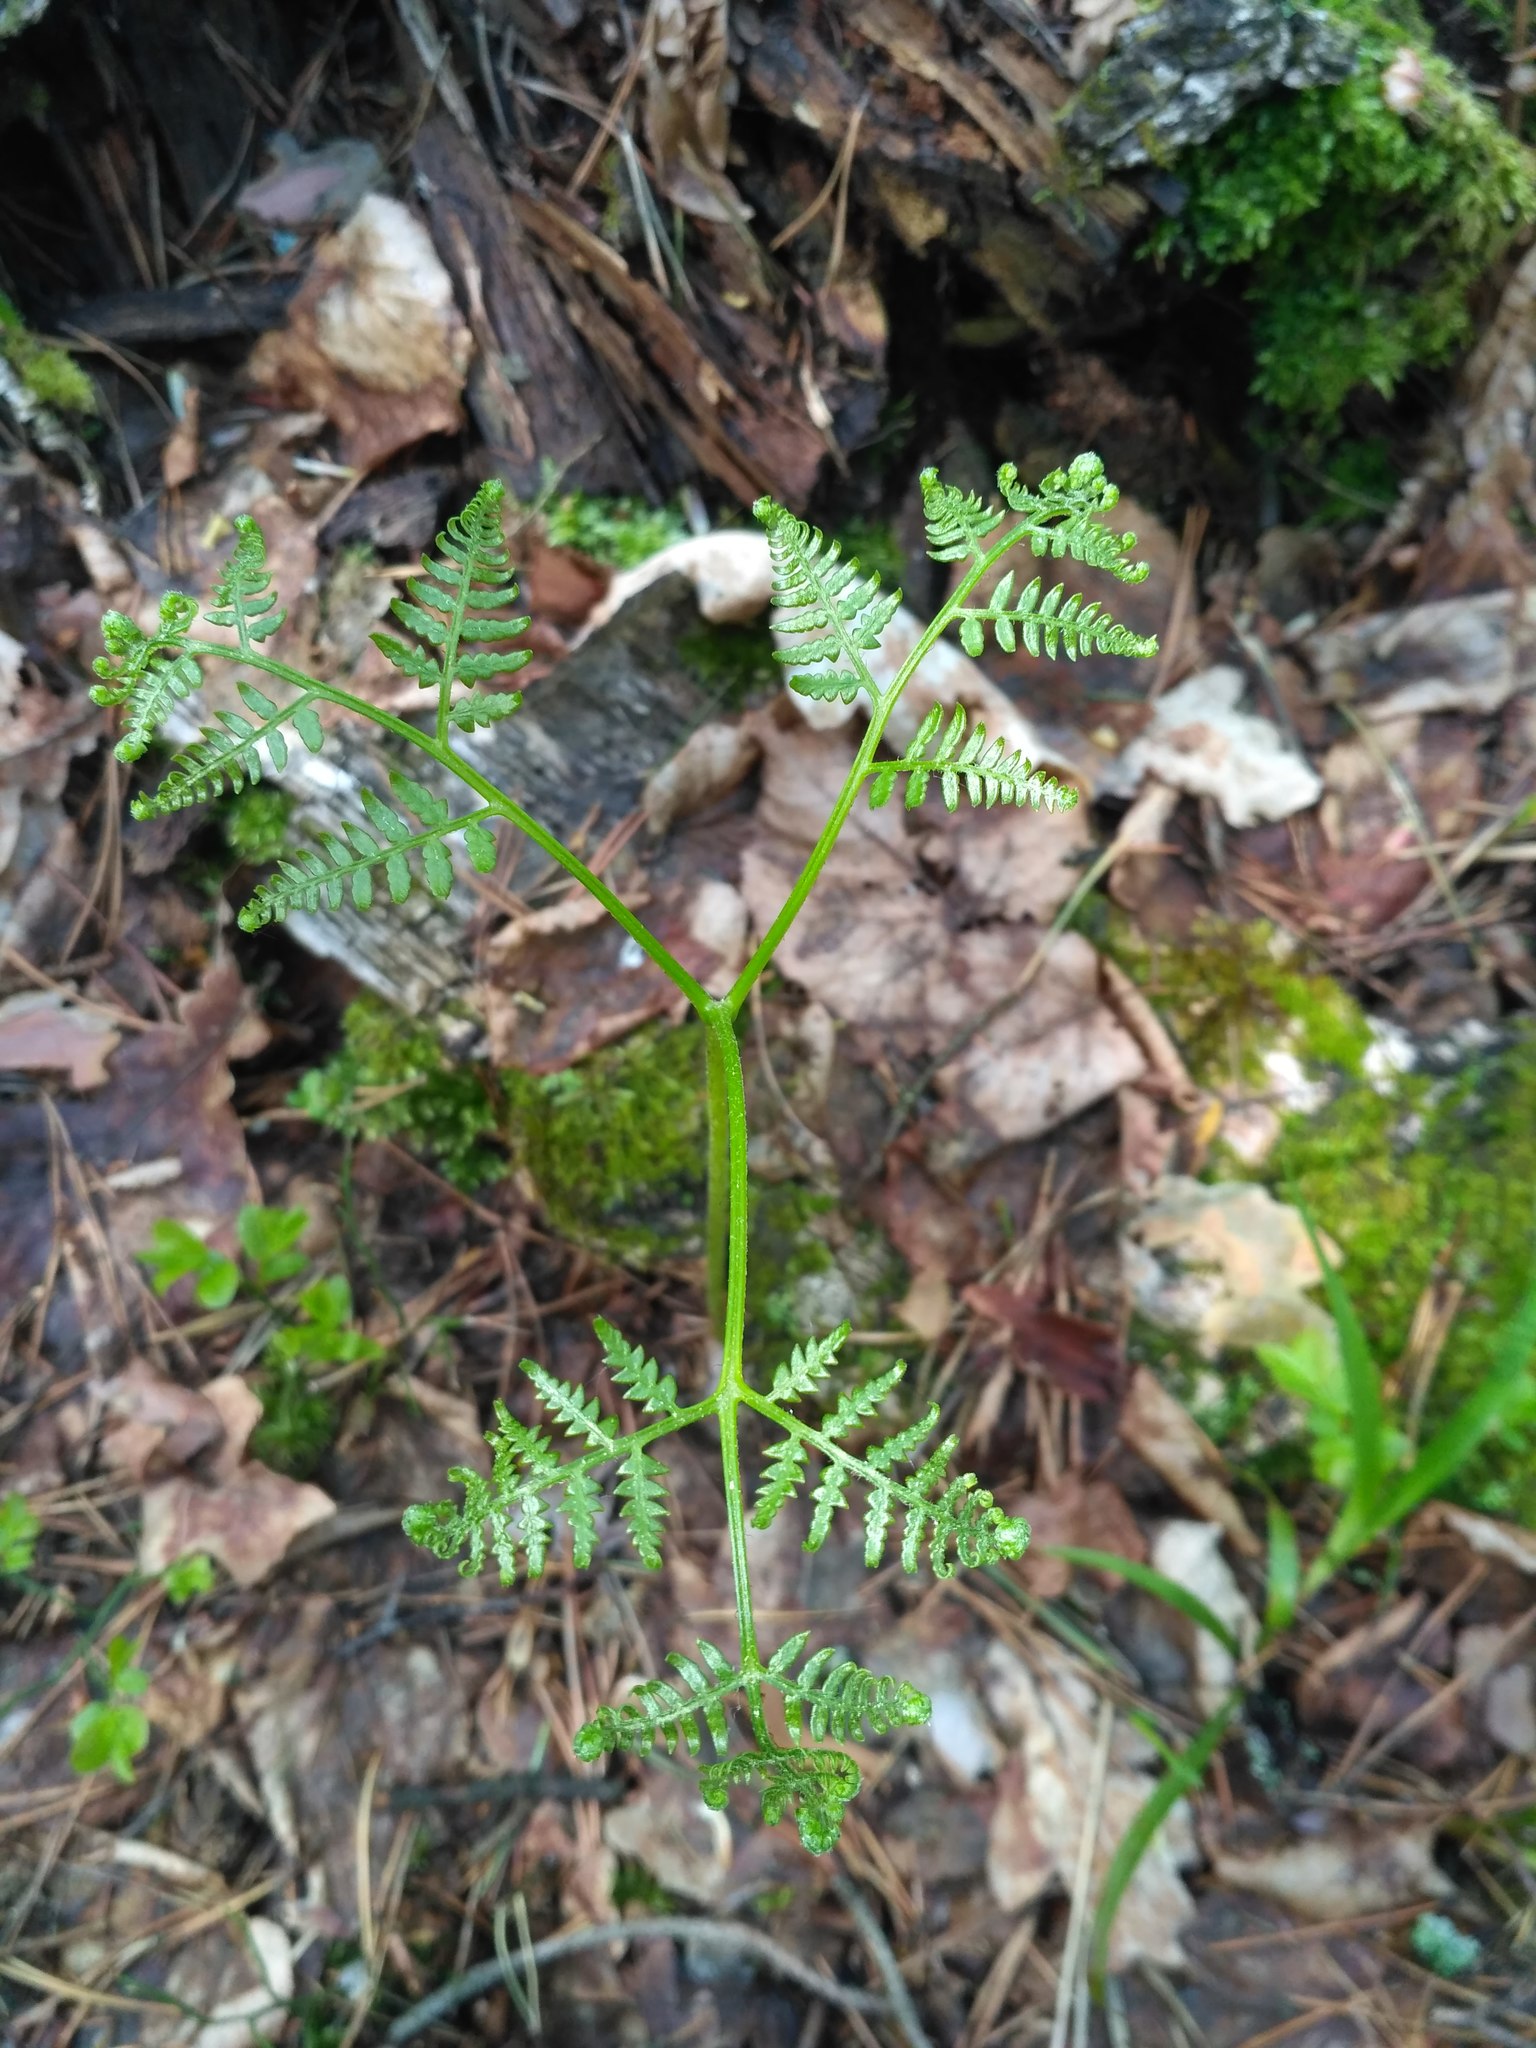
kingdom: Plantae
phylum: Tracheophyta
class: Polypodiopsida
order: Polypodiales
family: Dennstaedtiaceae
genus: Pteridium
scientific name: Pteridium aquilinum
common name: Bracken
